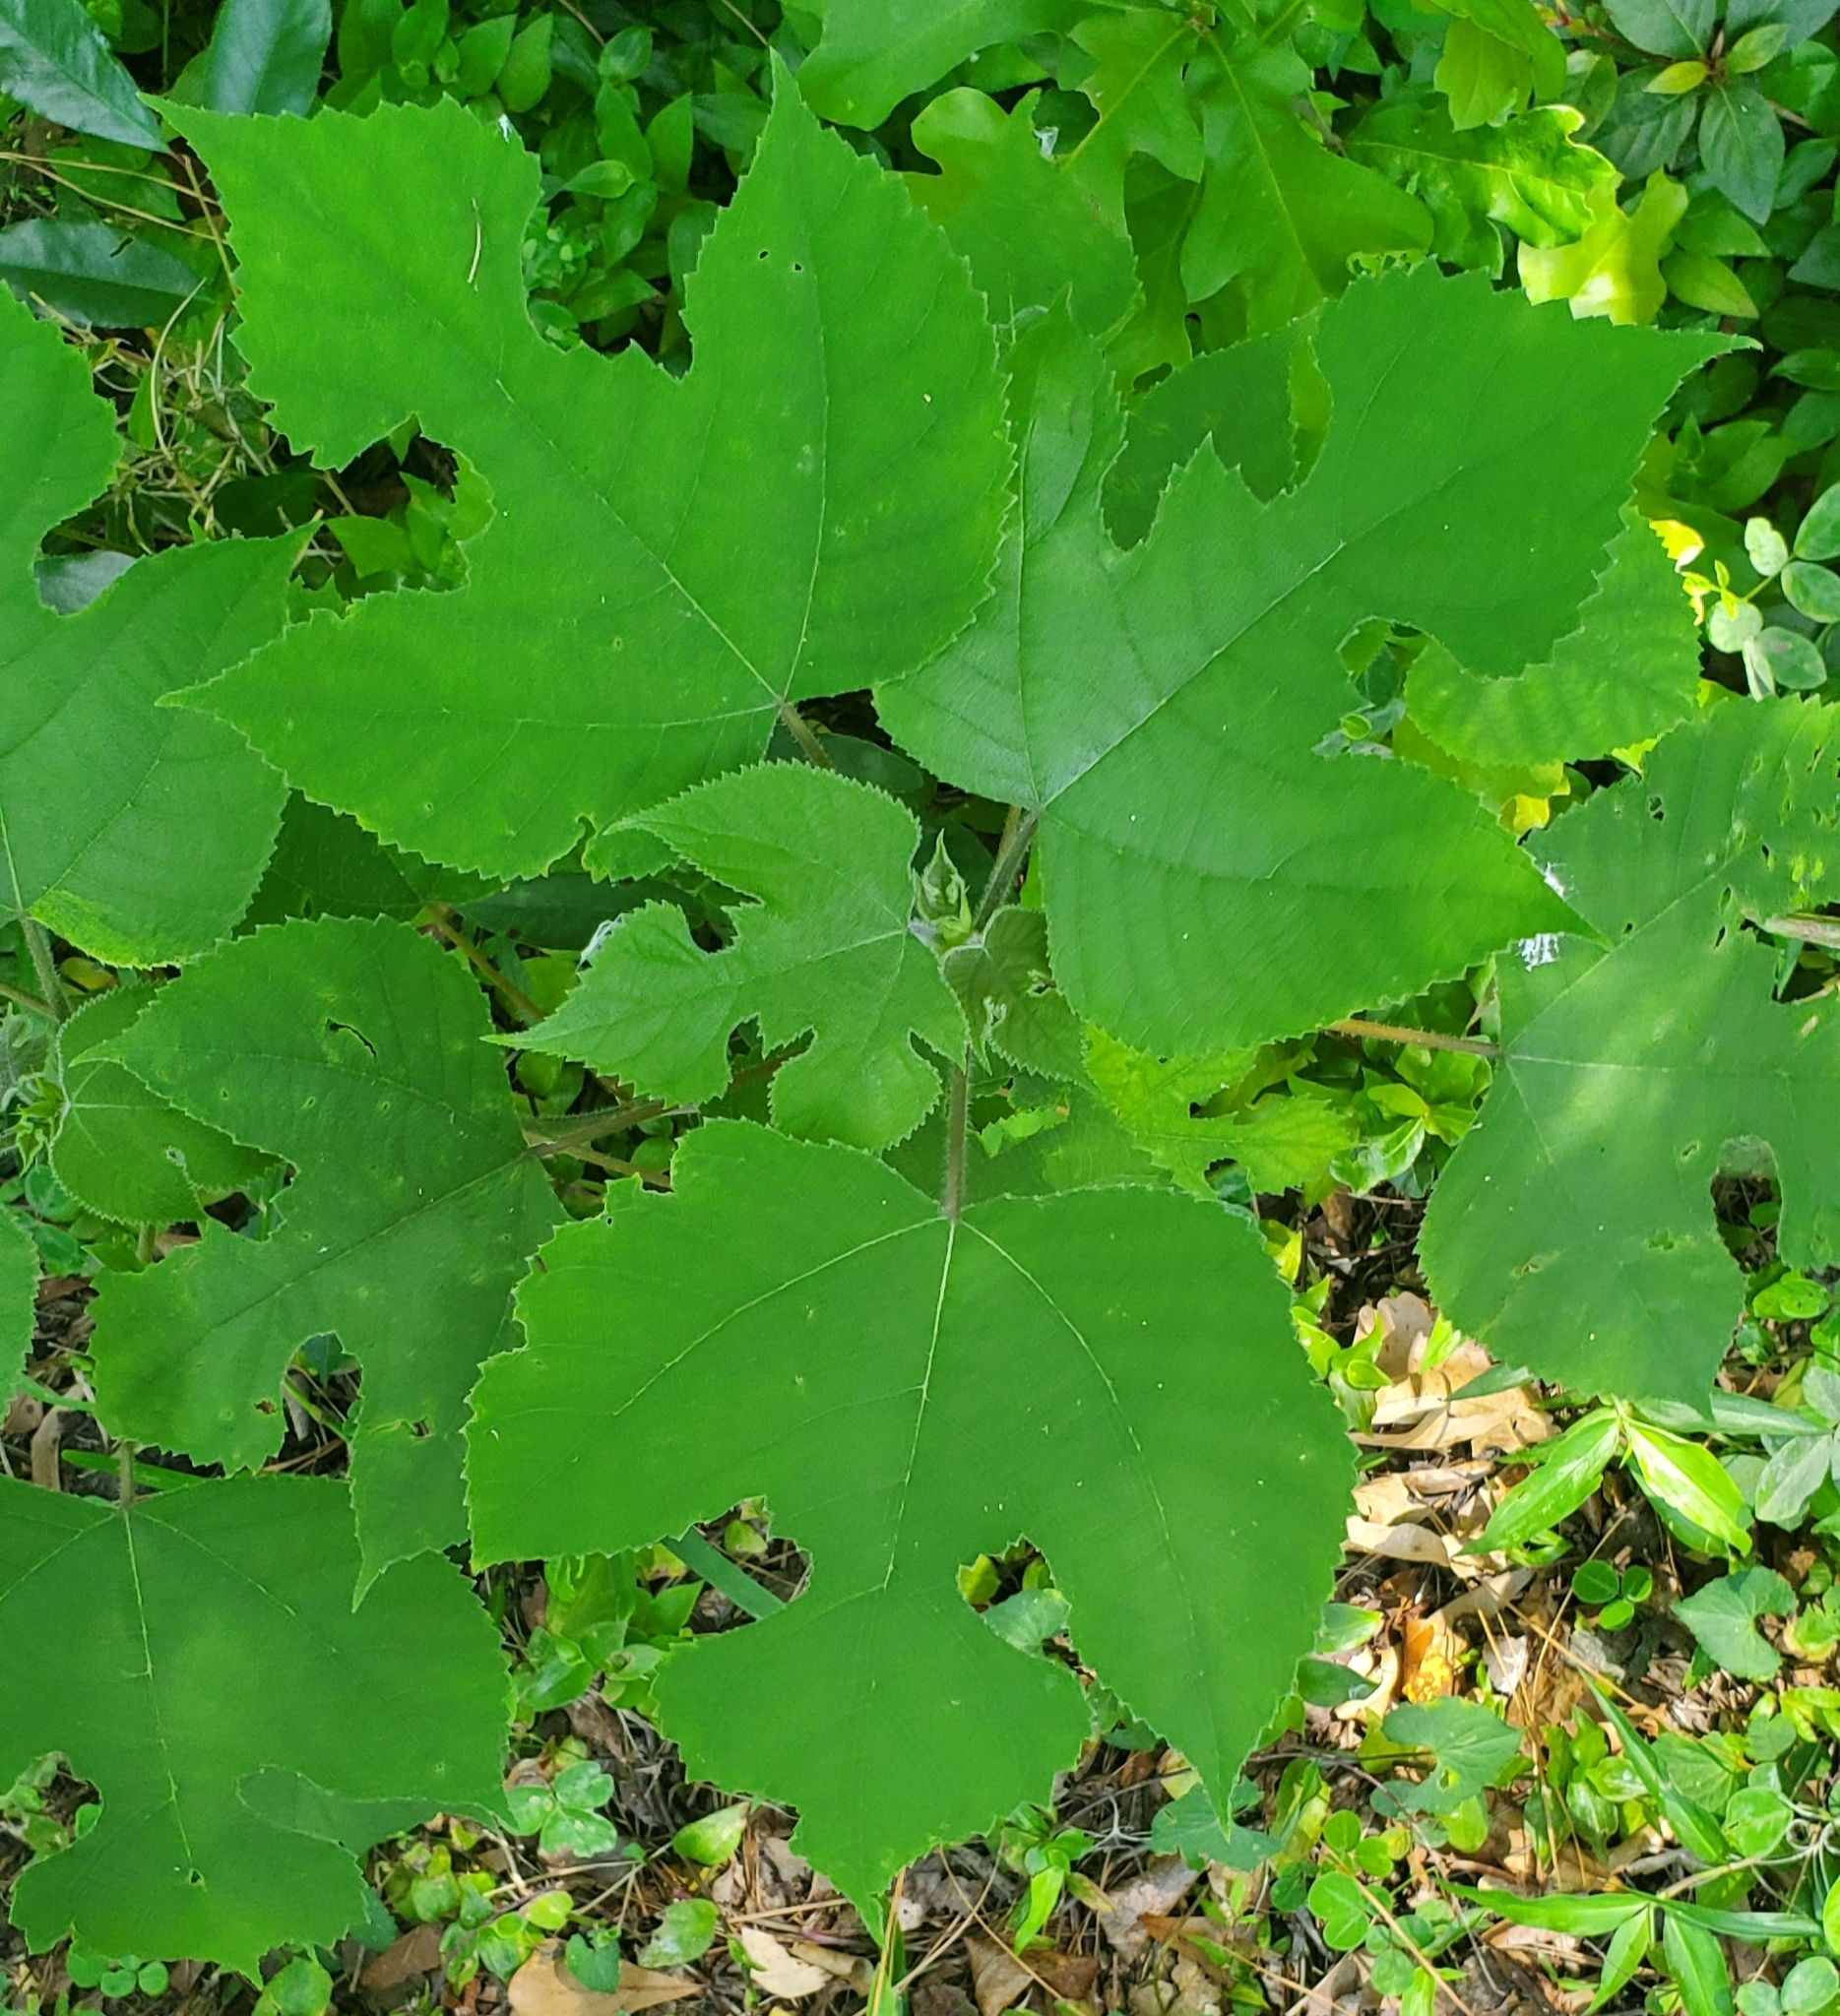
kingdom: Plantae
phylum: Tracheophyta
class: Magnoliopsida
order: Rosales
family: Moraceae
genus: Broussonetia
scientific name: Broussonetia papyrifera
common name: Paper mulberry
